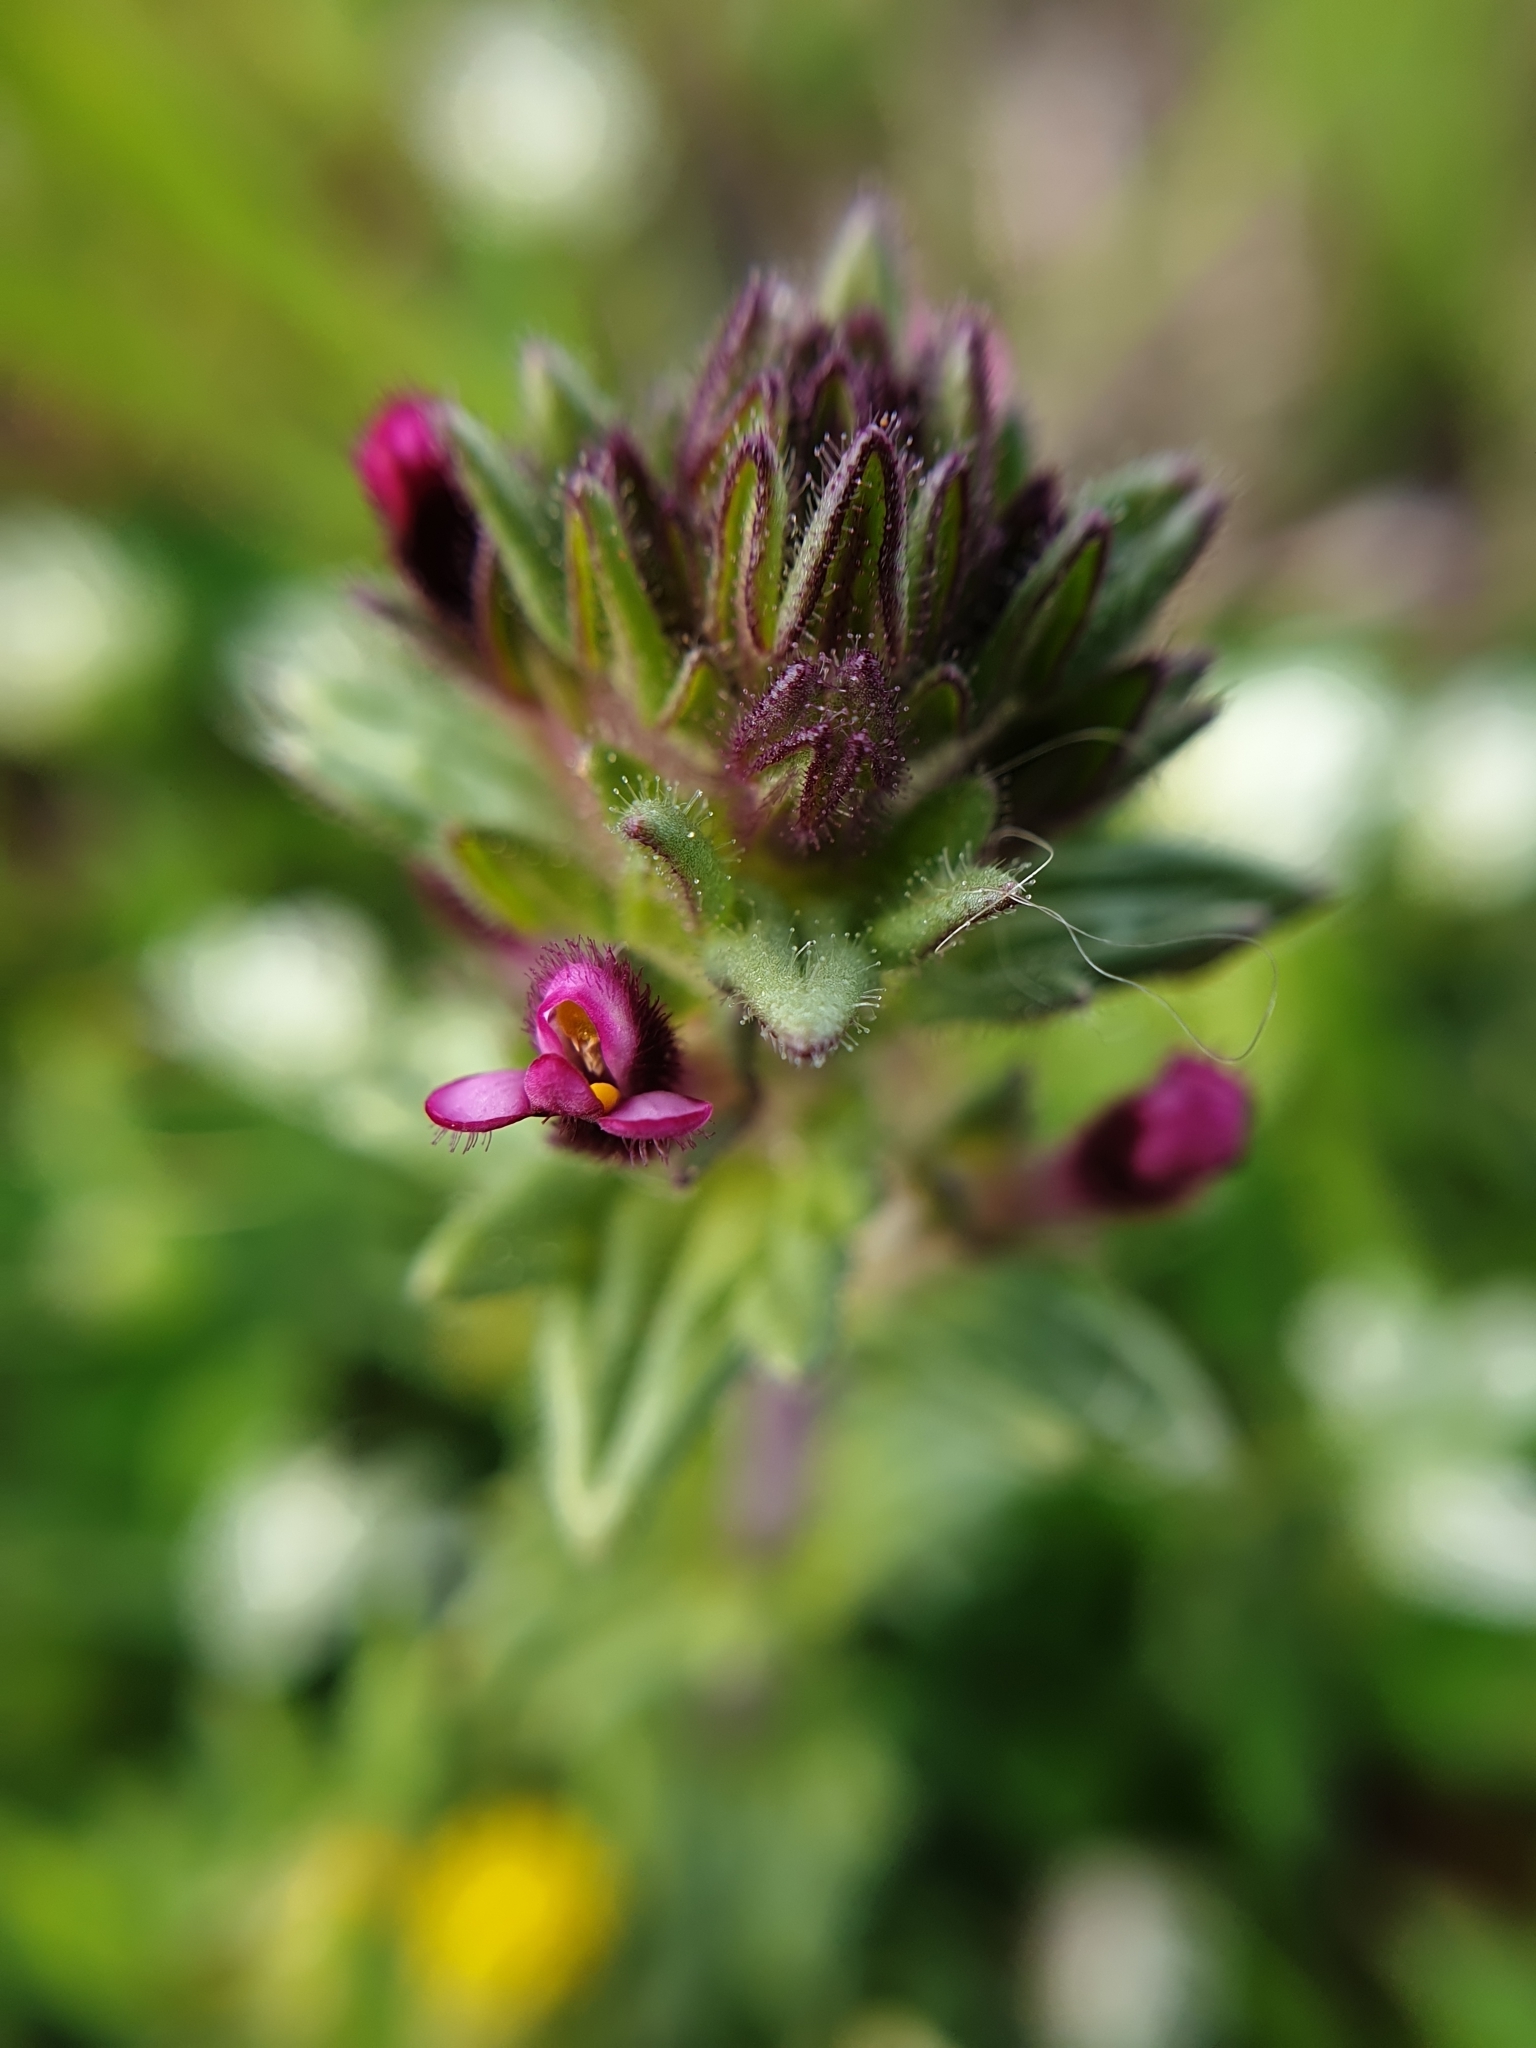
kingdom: Plantae
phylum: Tracheophyta
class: Magnoliopsida
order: Lamiales
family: Orobanchaceae
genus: Parentucellia
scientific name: Parentucellia latifolia
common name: Broadleaf glandweed
